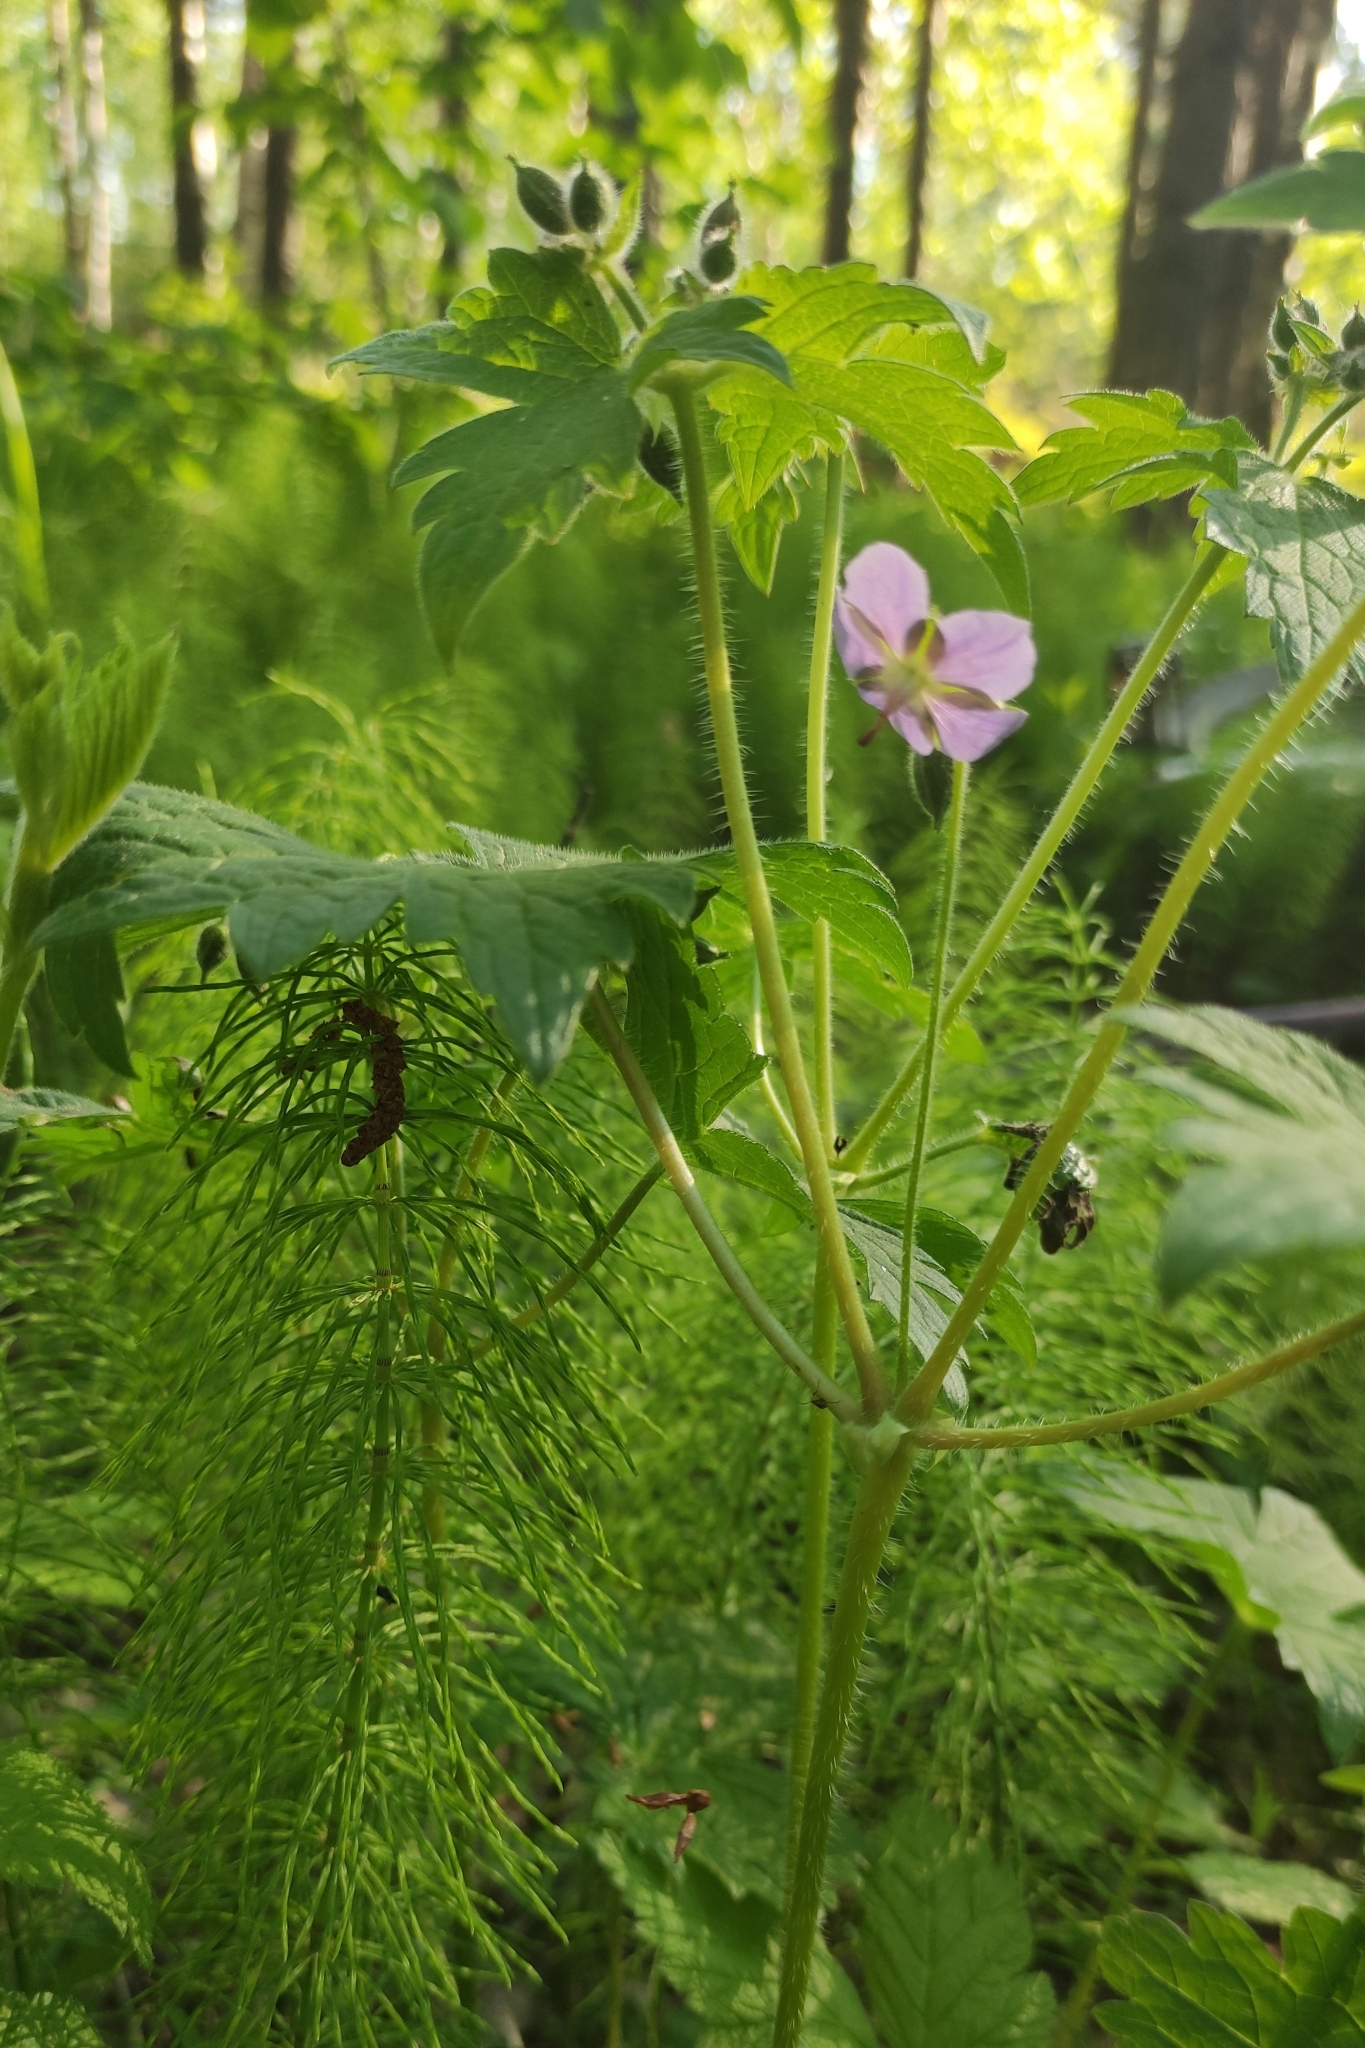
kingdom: Plantae
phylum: Tracheophyta
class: Magnoliopsida
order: Geraniales
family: Geraniaceae
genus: Geranium
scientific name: Geranium platyanthum
